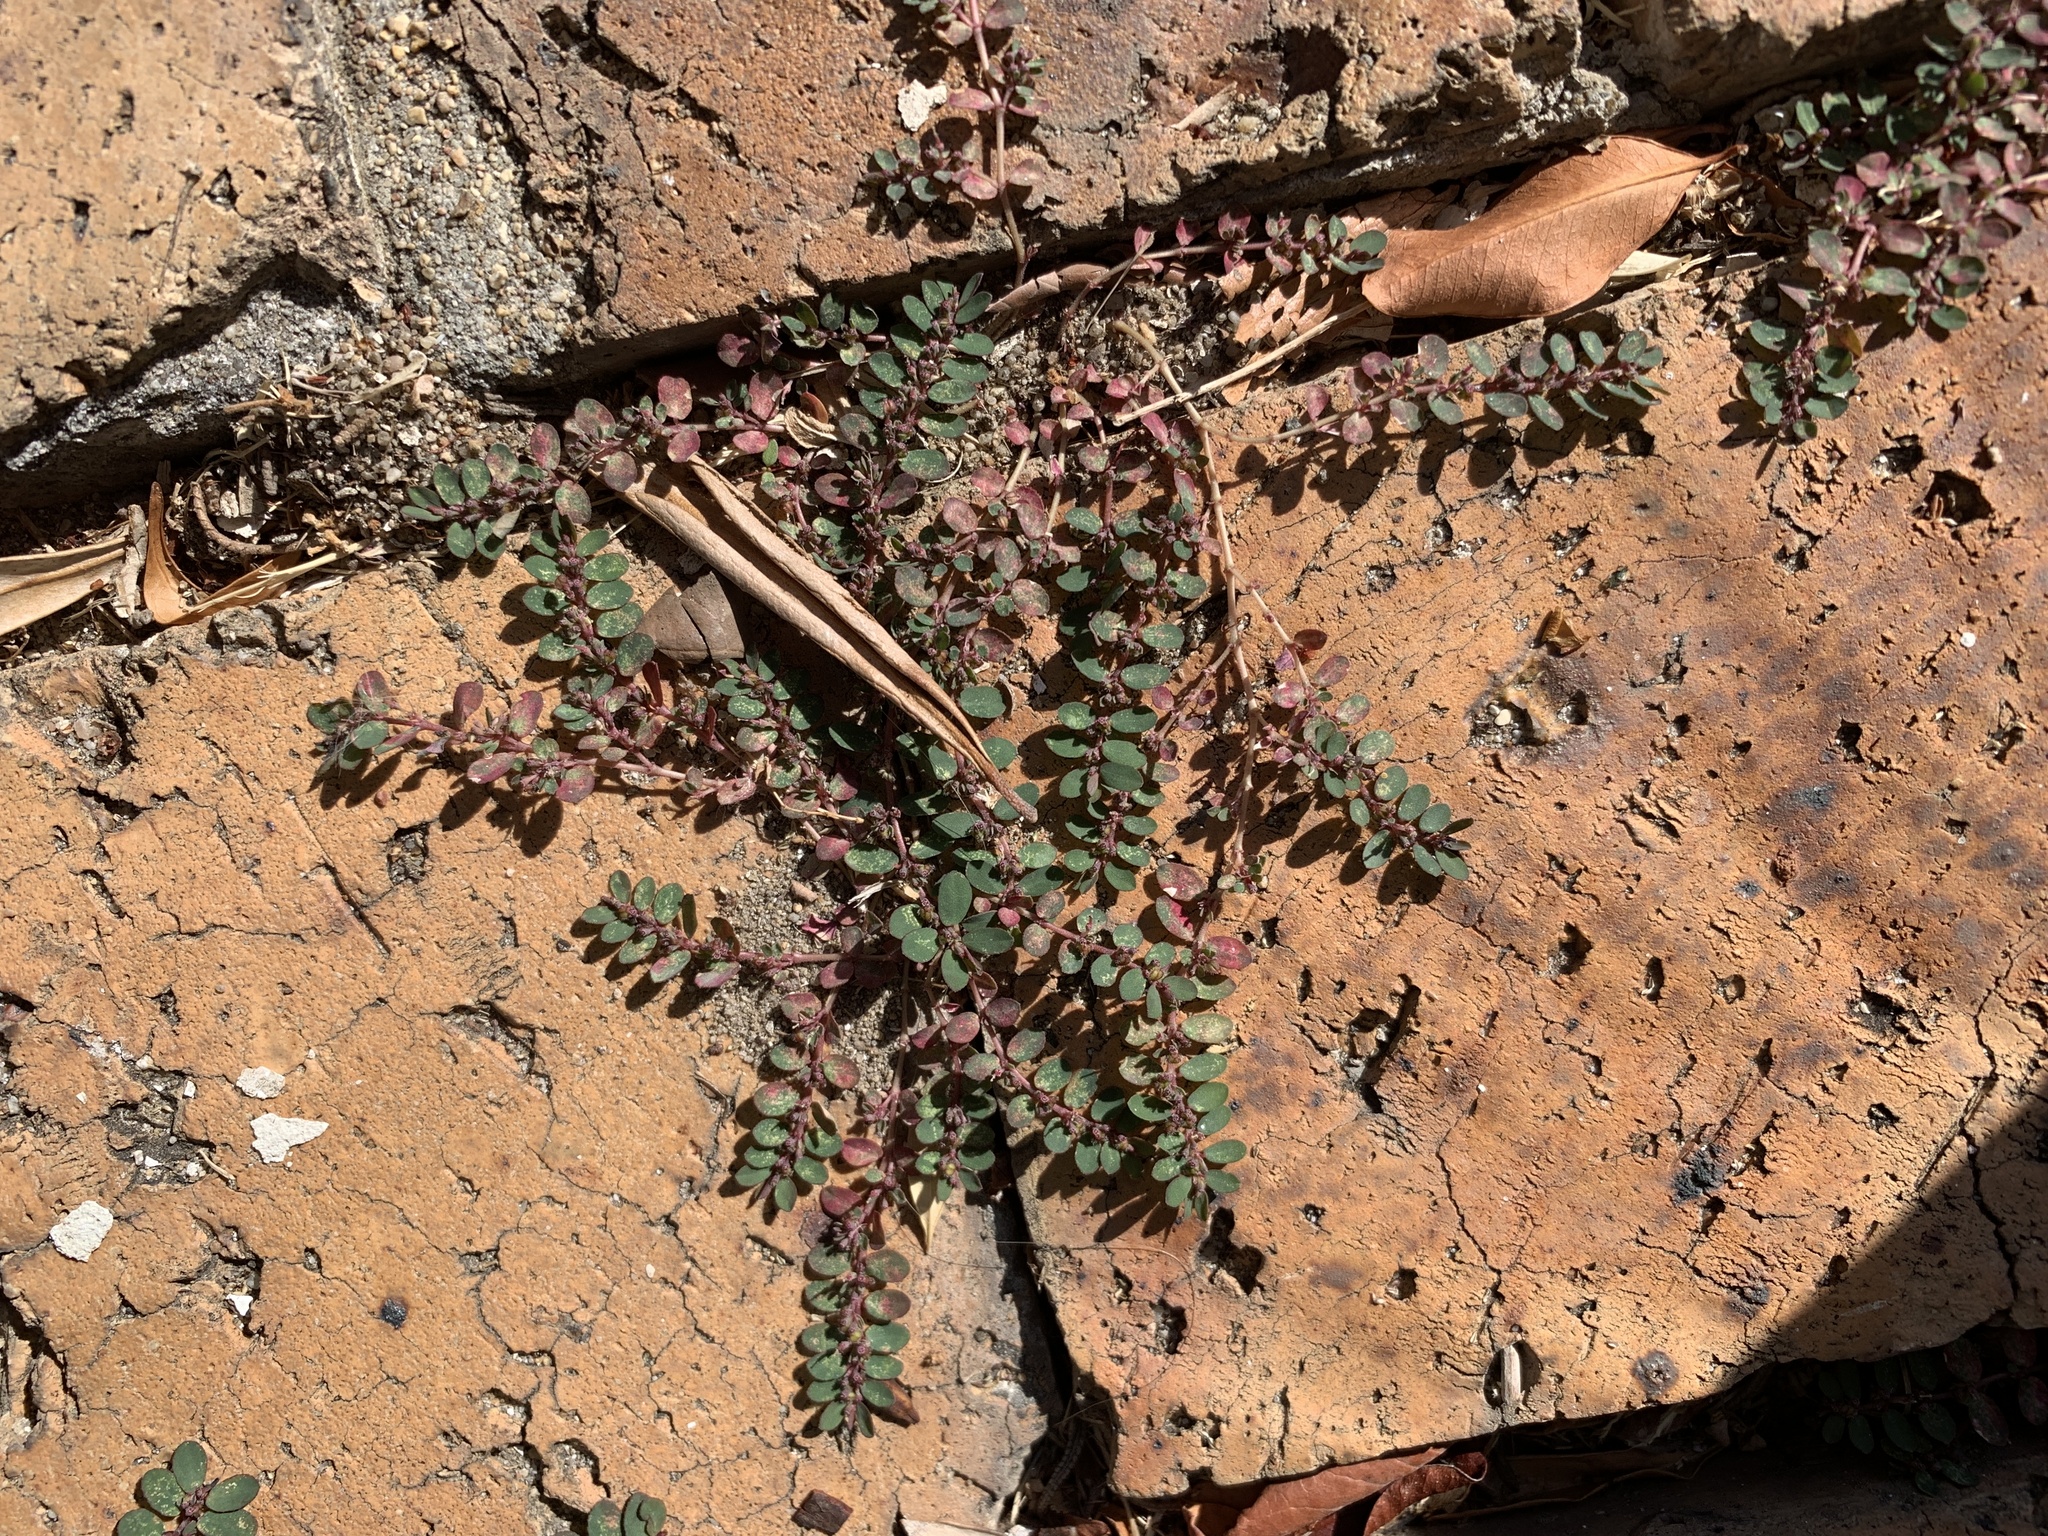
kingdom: Plantae
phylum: Tracheophyta
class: Magnoliopsida
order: Malpighiales
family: Euphorbiaceae
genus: Euphorbia
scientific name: Euphorbia prostrata
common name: Prostrate sandmat
